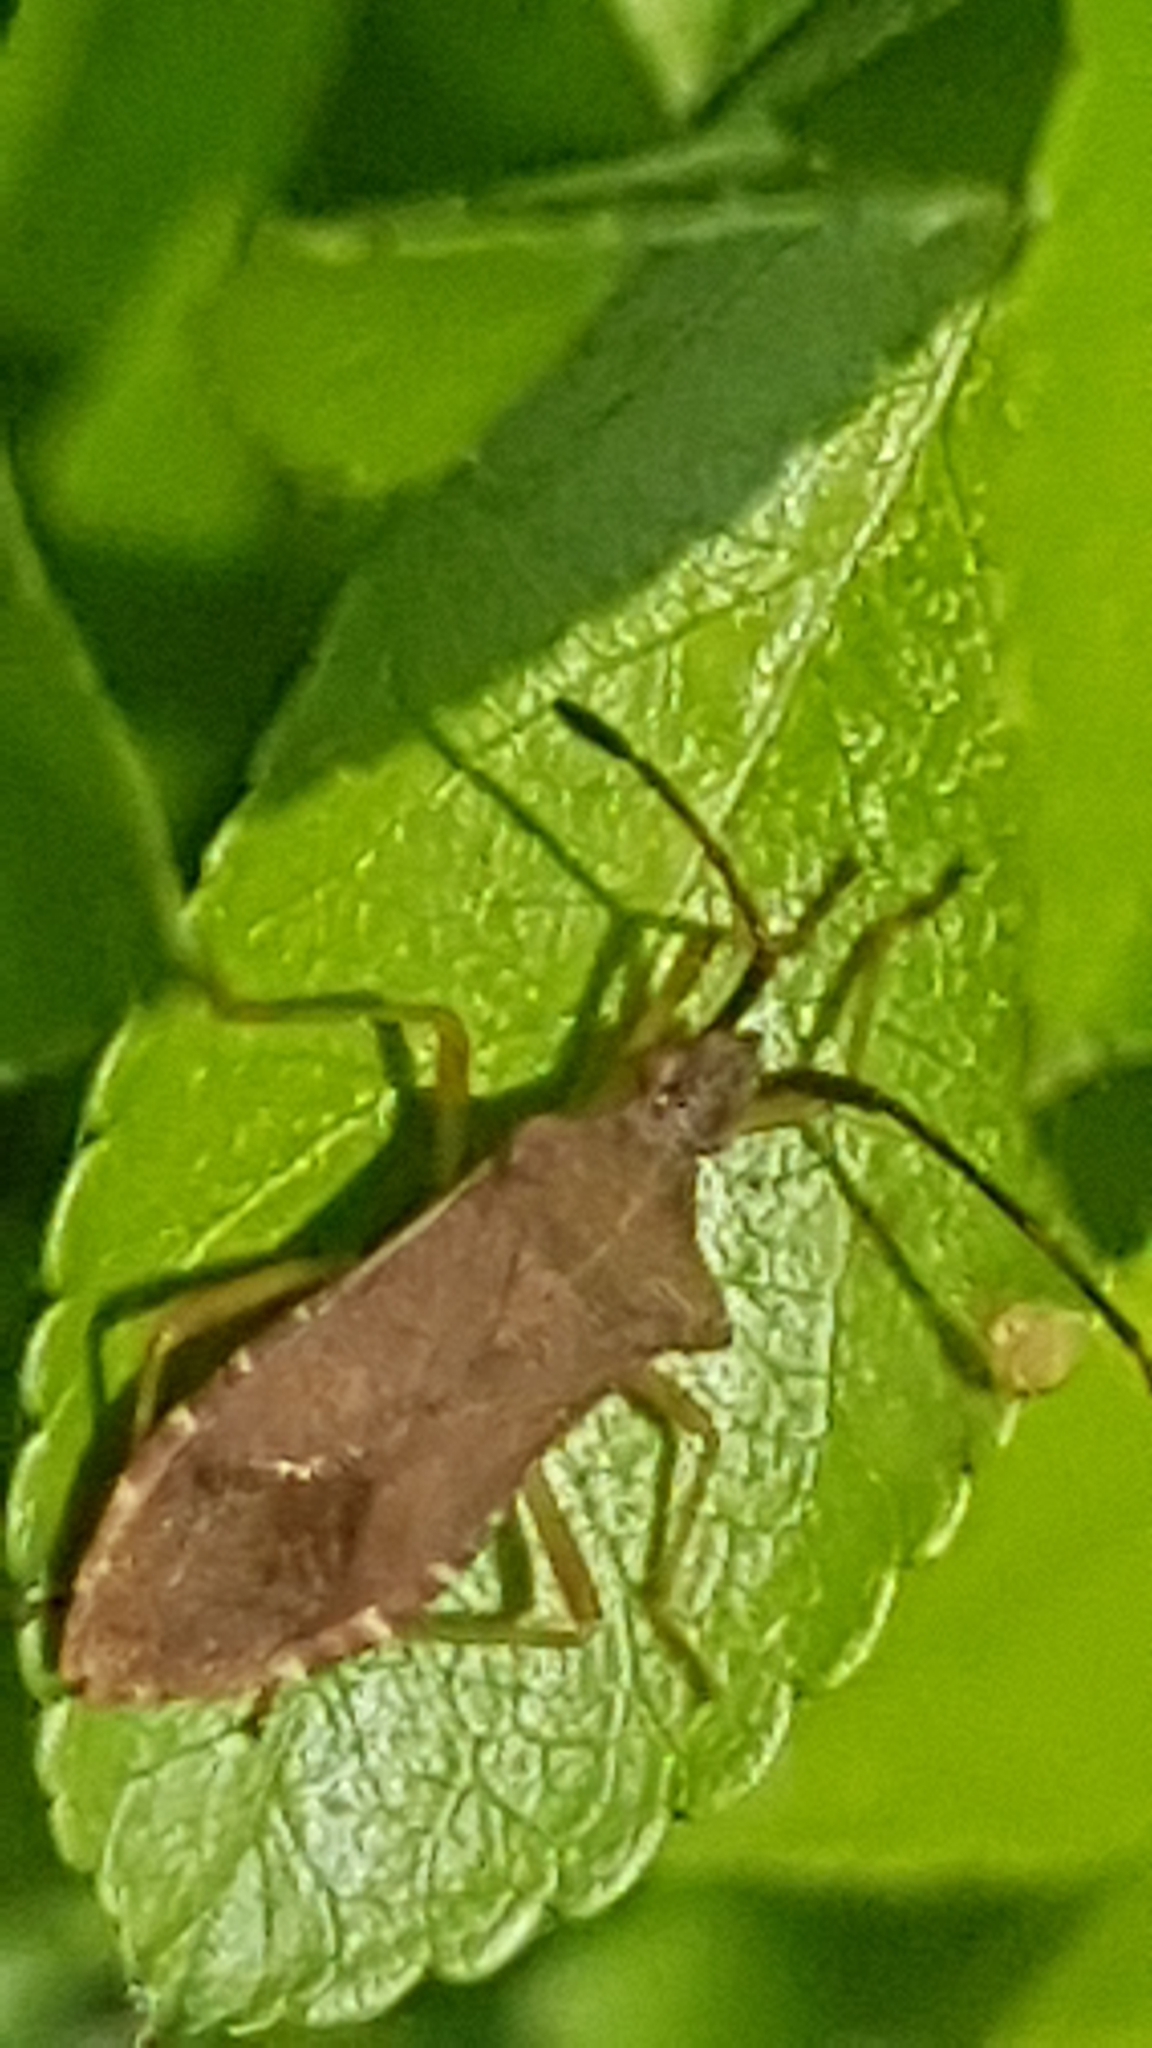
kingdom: Animalia
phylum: Arthropoda
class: Insecta
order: Hemiptera
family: Coreidae
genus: Gonocerus
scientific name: Gonocerus acuteangulatus
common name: Box bug
